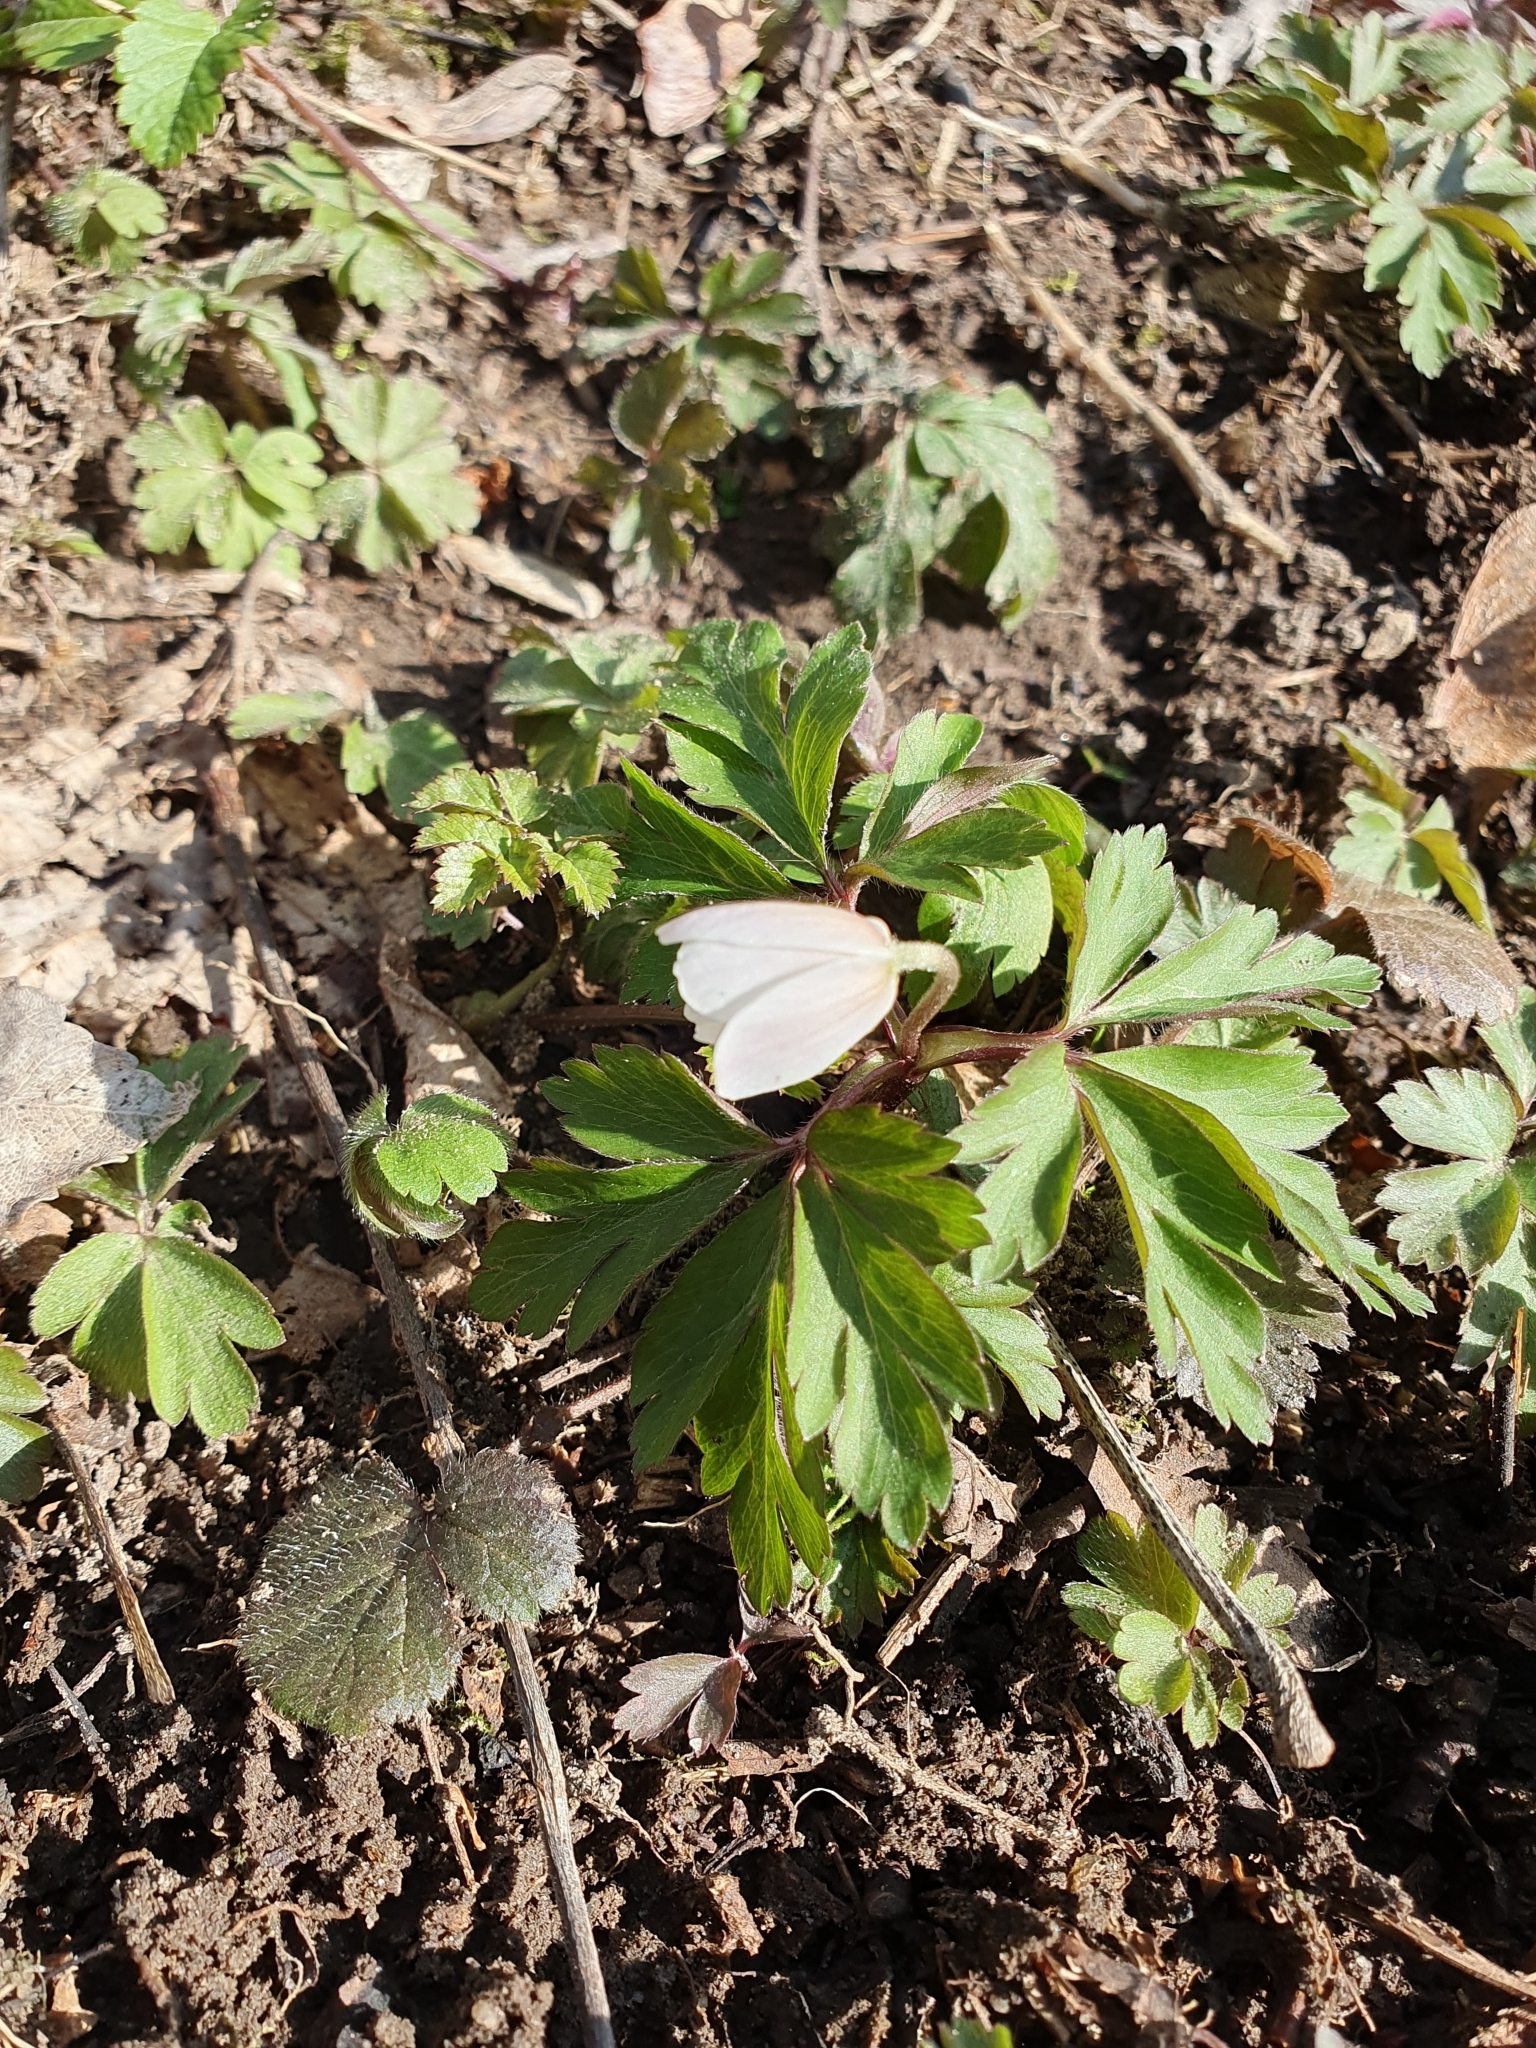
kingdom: Plantae
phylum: Tracheophyta
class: Magnoliopsida
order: Ranunculales
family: Ranunculaceae
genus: Anemone
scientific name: Anemone nemorosa
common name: Wood anemone
